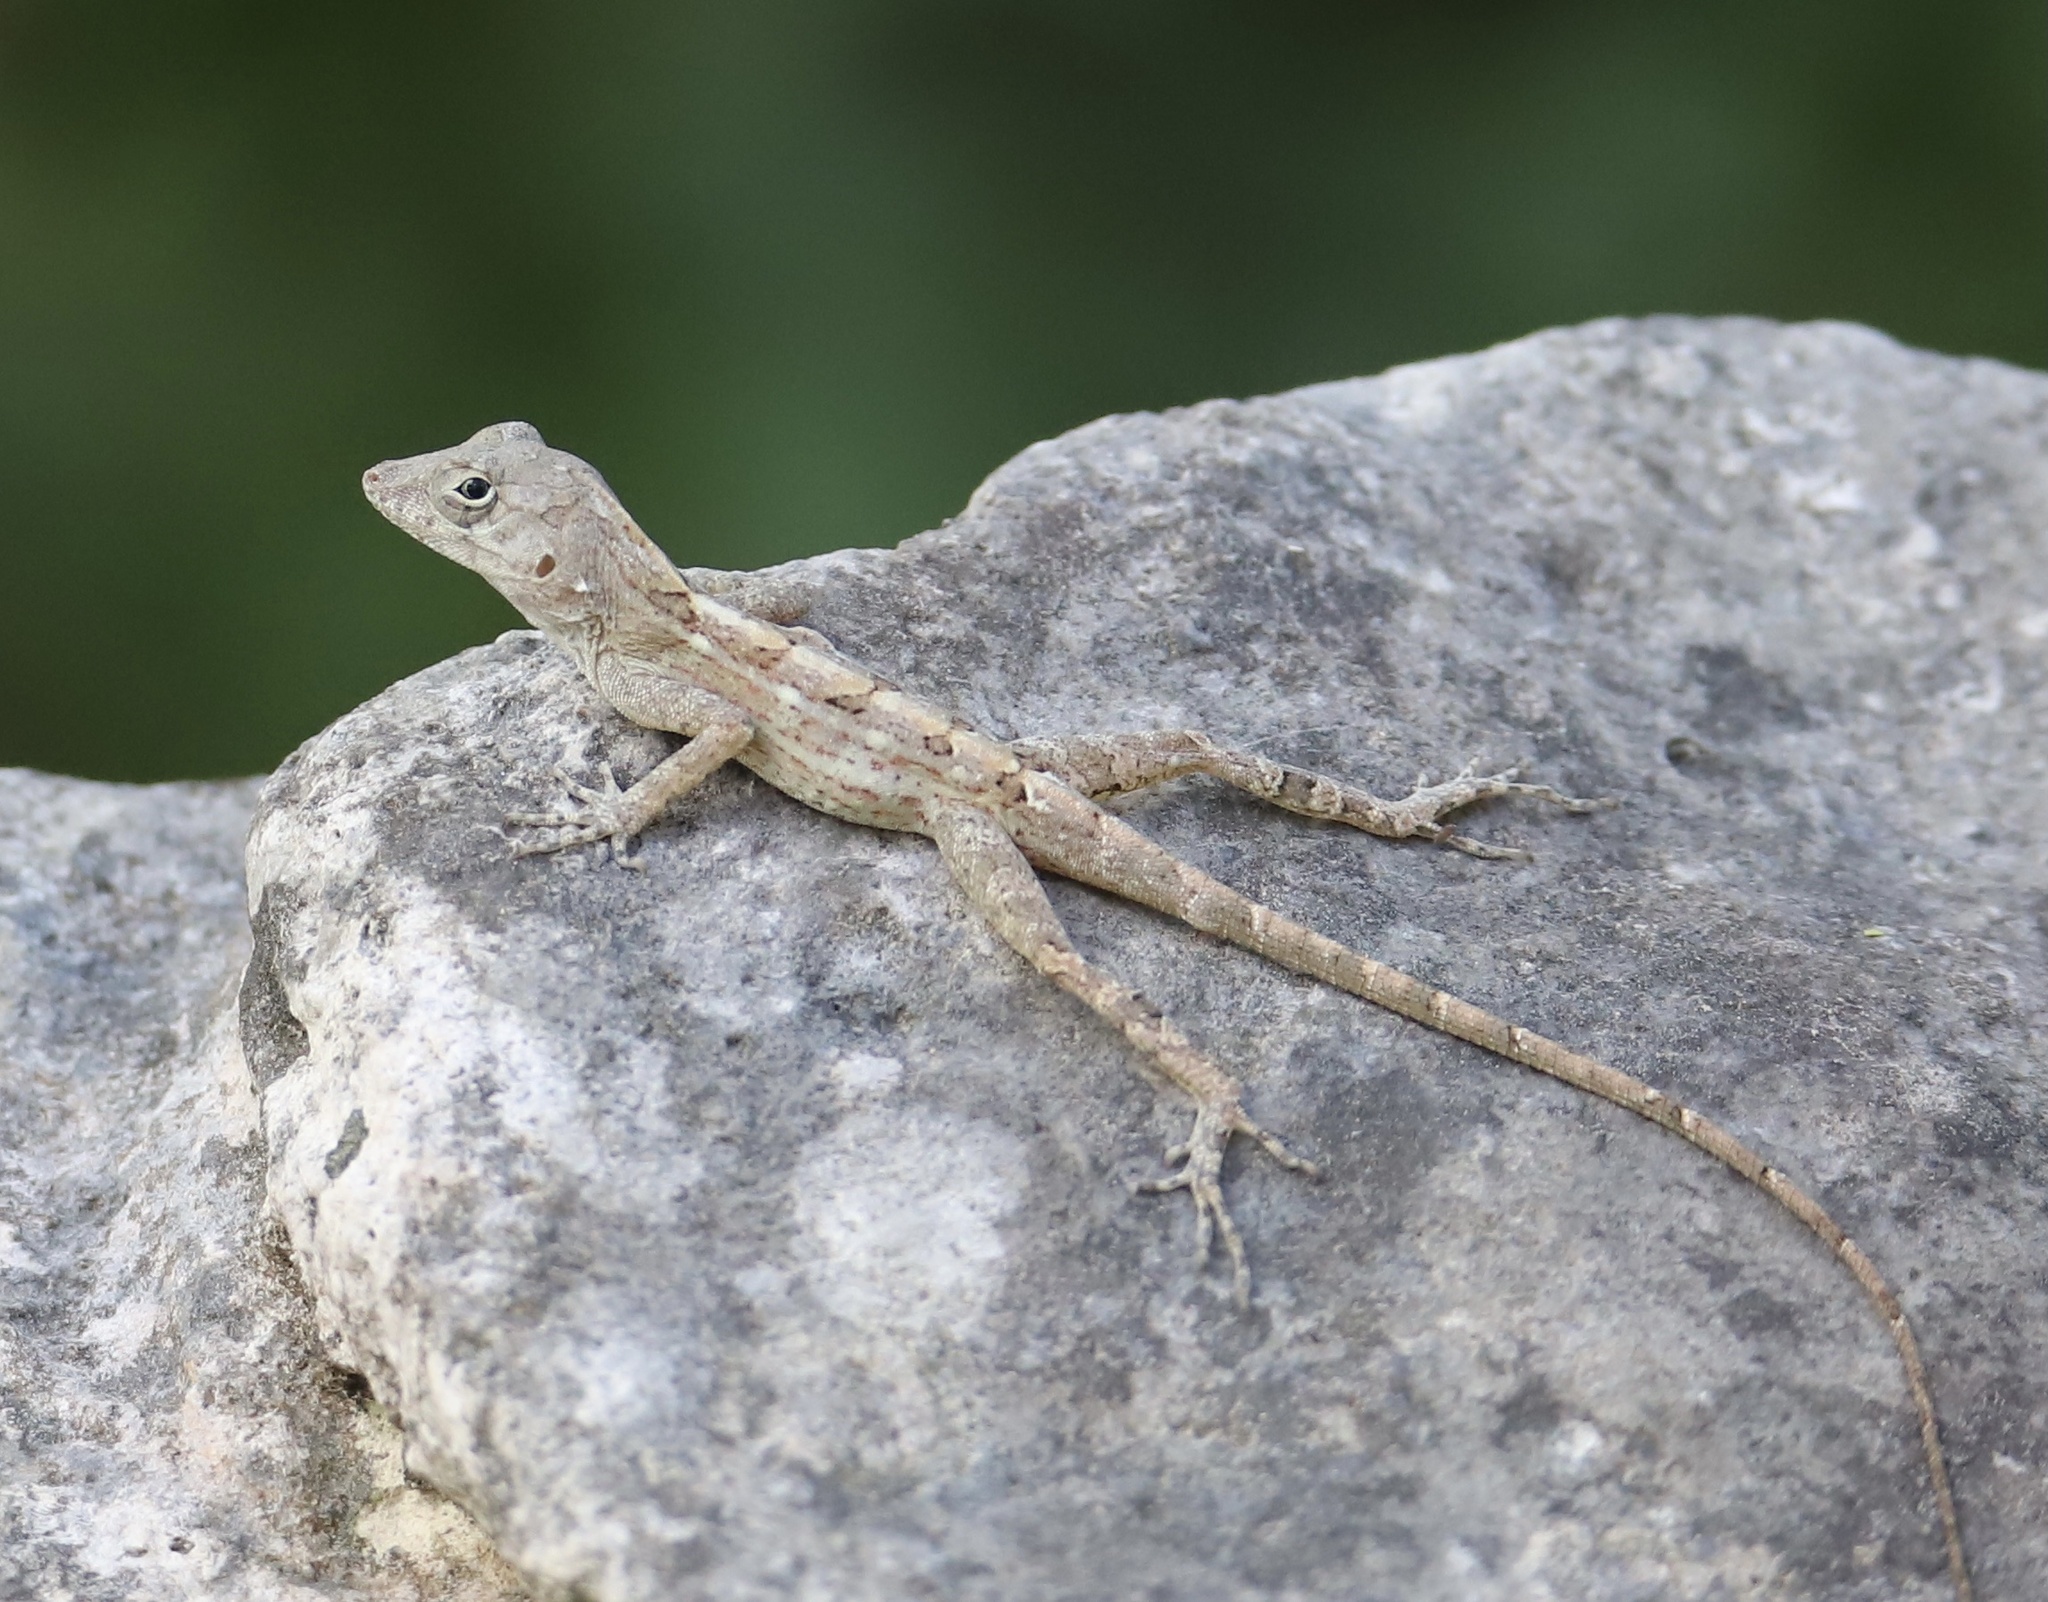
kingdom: Animalia
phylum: Chordata
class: Squamata
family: Dactyloidae
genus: Anolis
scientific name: Anolis ravifaux
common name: Saona stout anole
